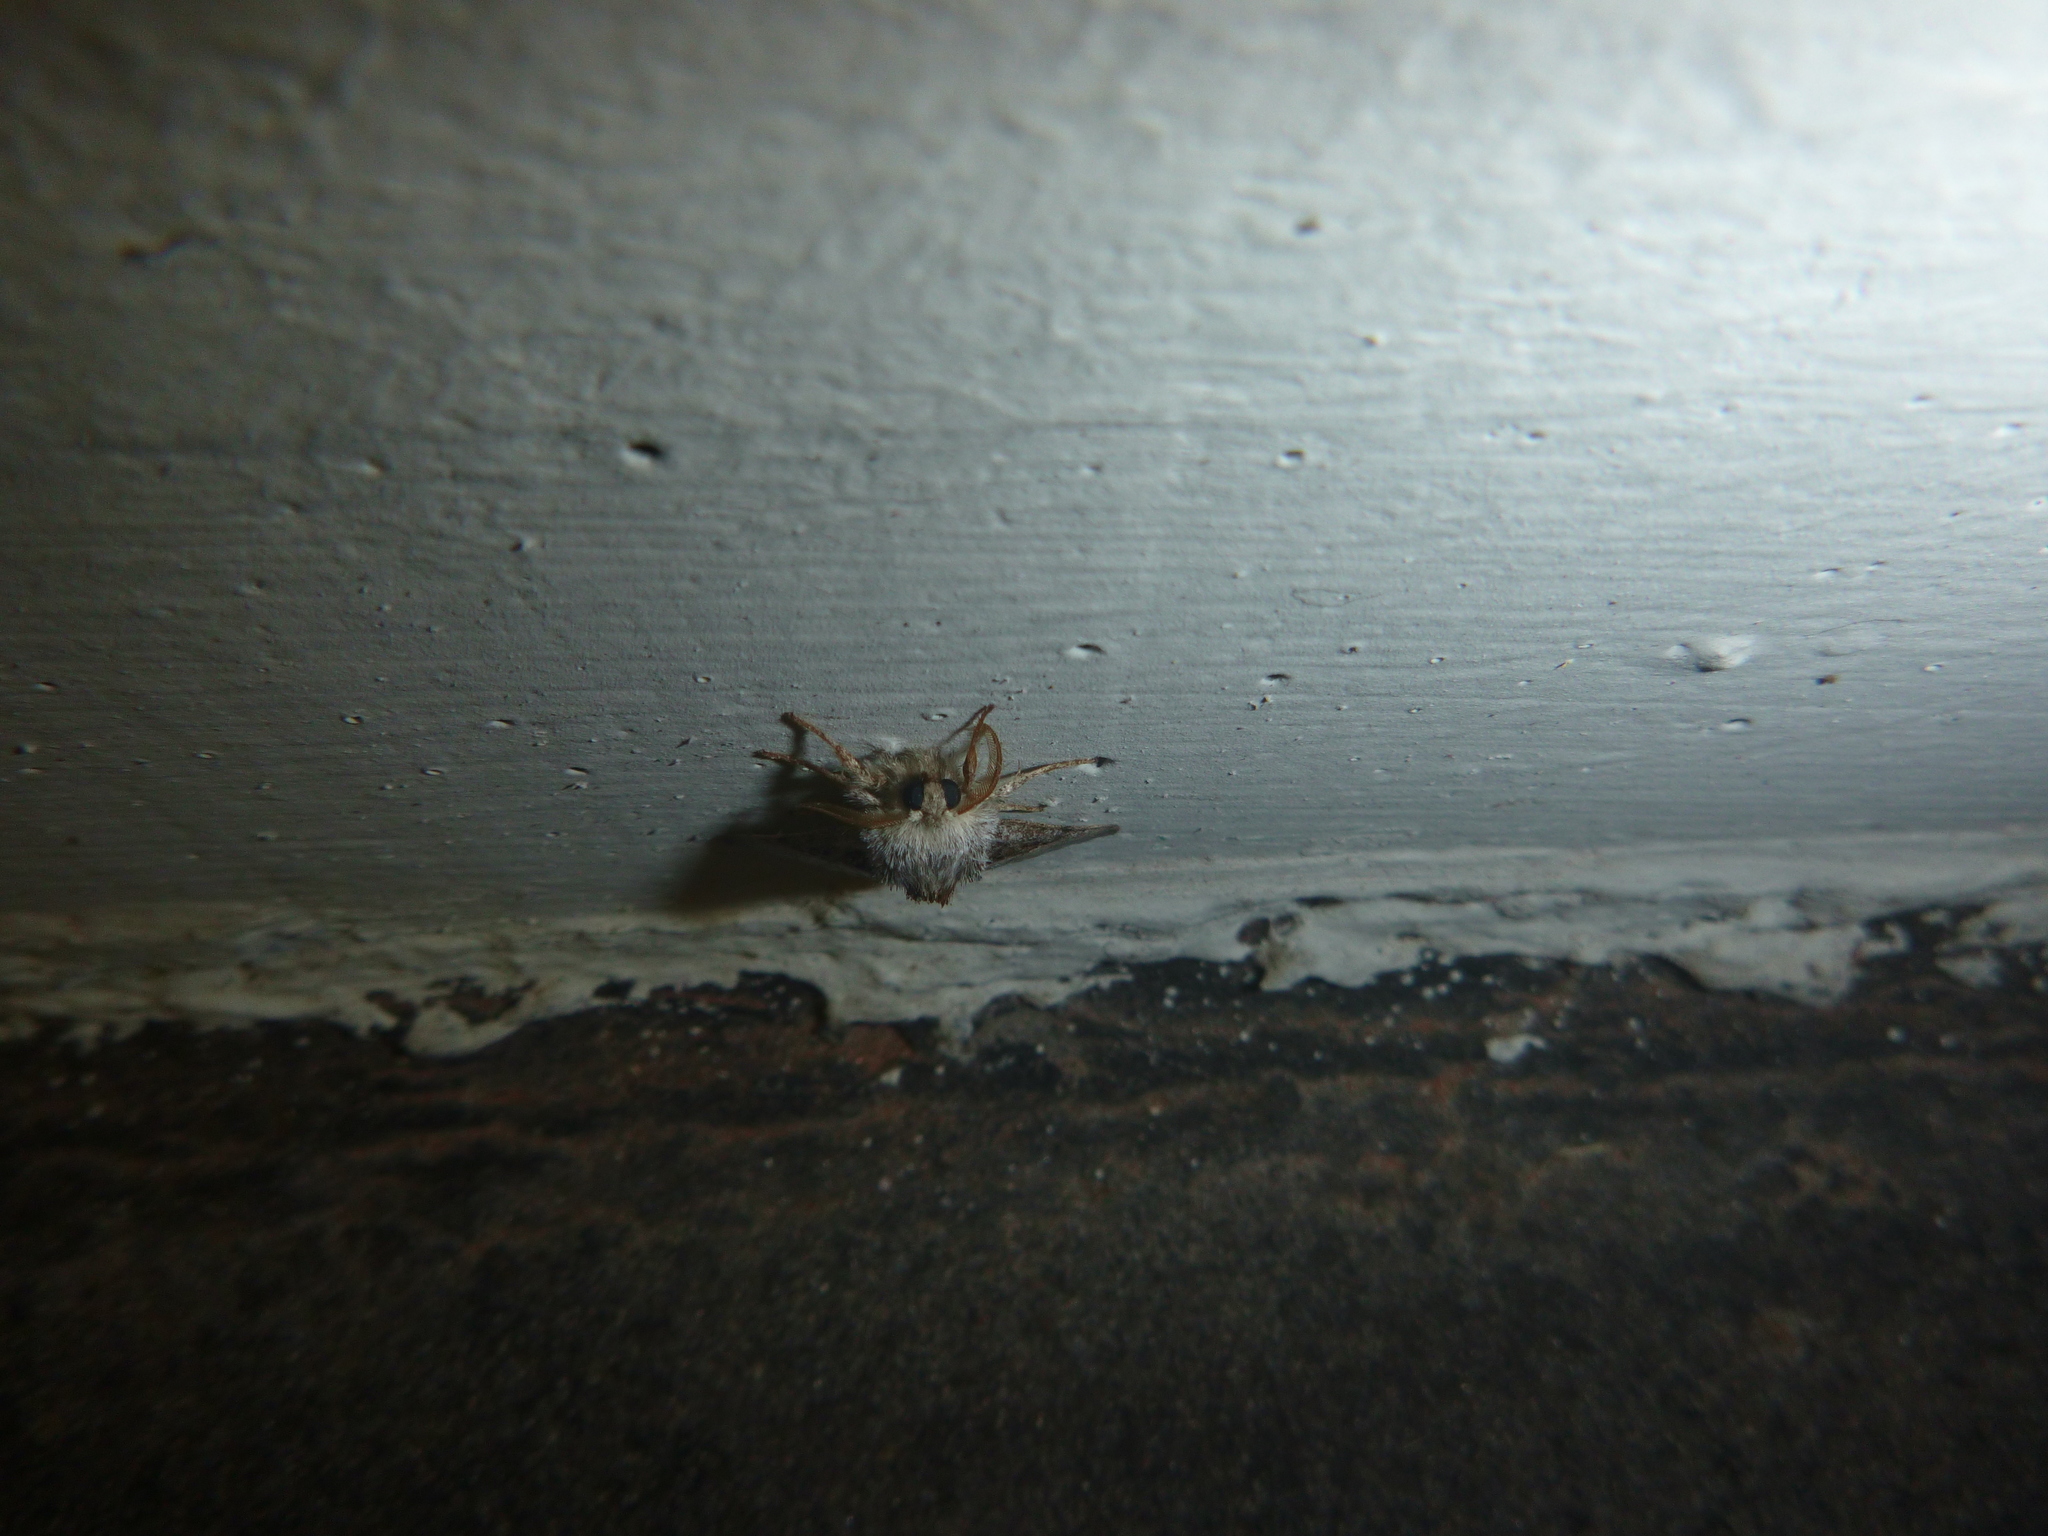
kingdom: Animalia
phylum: Arthropoda
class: Insecta
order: Lepidoptera
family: Noctuidae
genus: Colocasia
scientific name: Colocasia coryli
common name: Nut-tree tussock
